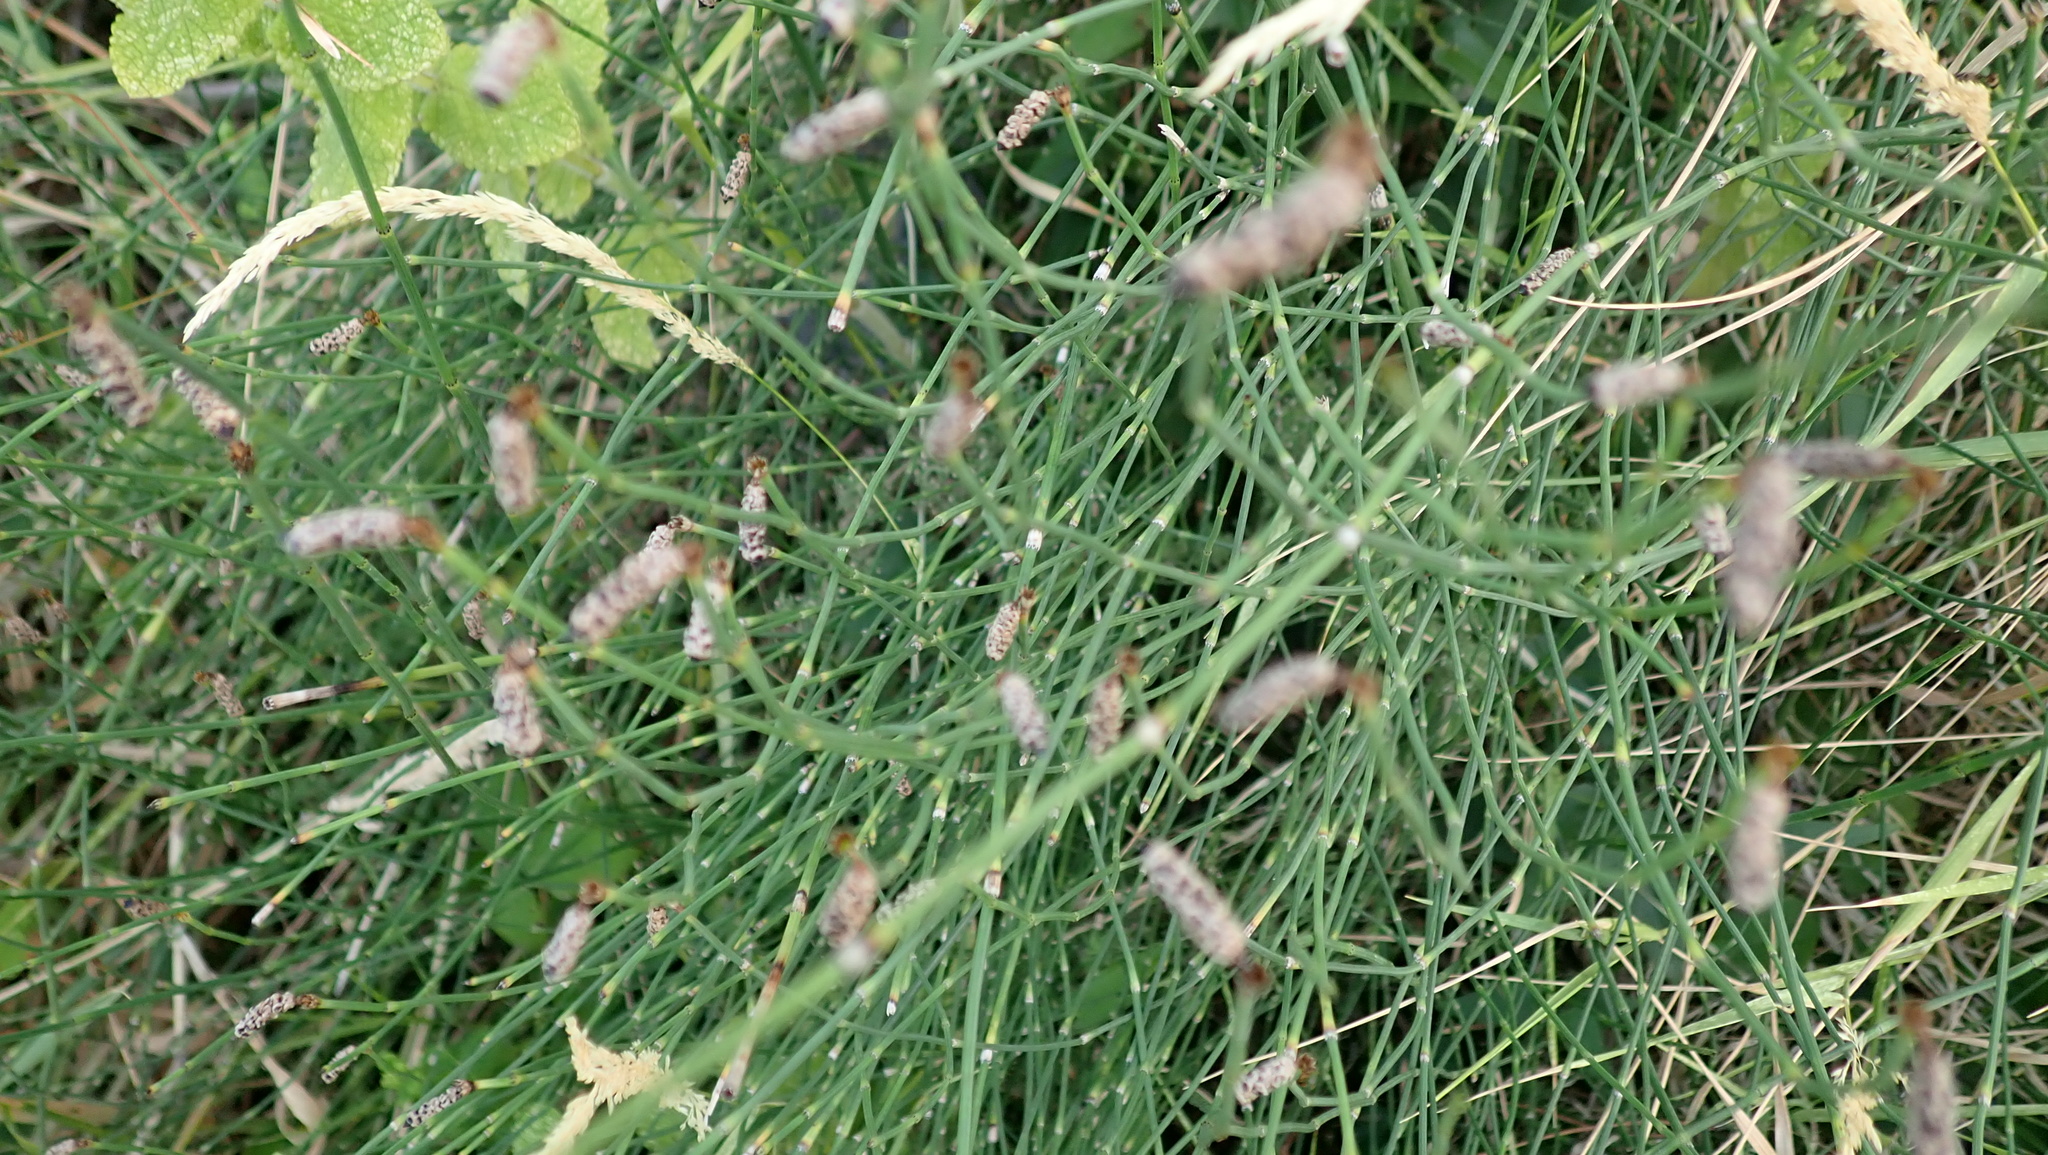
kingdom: Plantae
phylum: Tracheophyta
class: Polypodiopsida
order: Equisetales
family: Equisetaceae
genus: Equisetum
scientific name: Equisetum ramosissimum
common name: Branched horsetail
